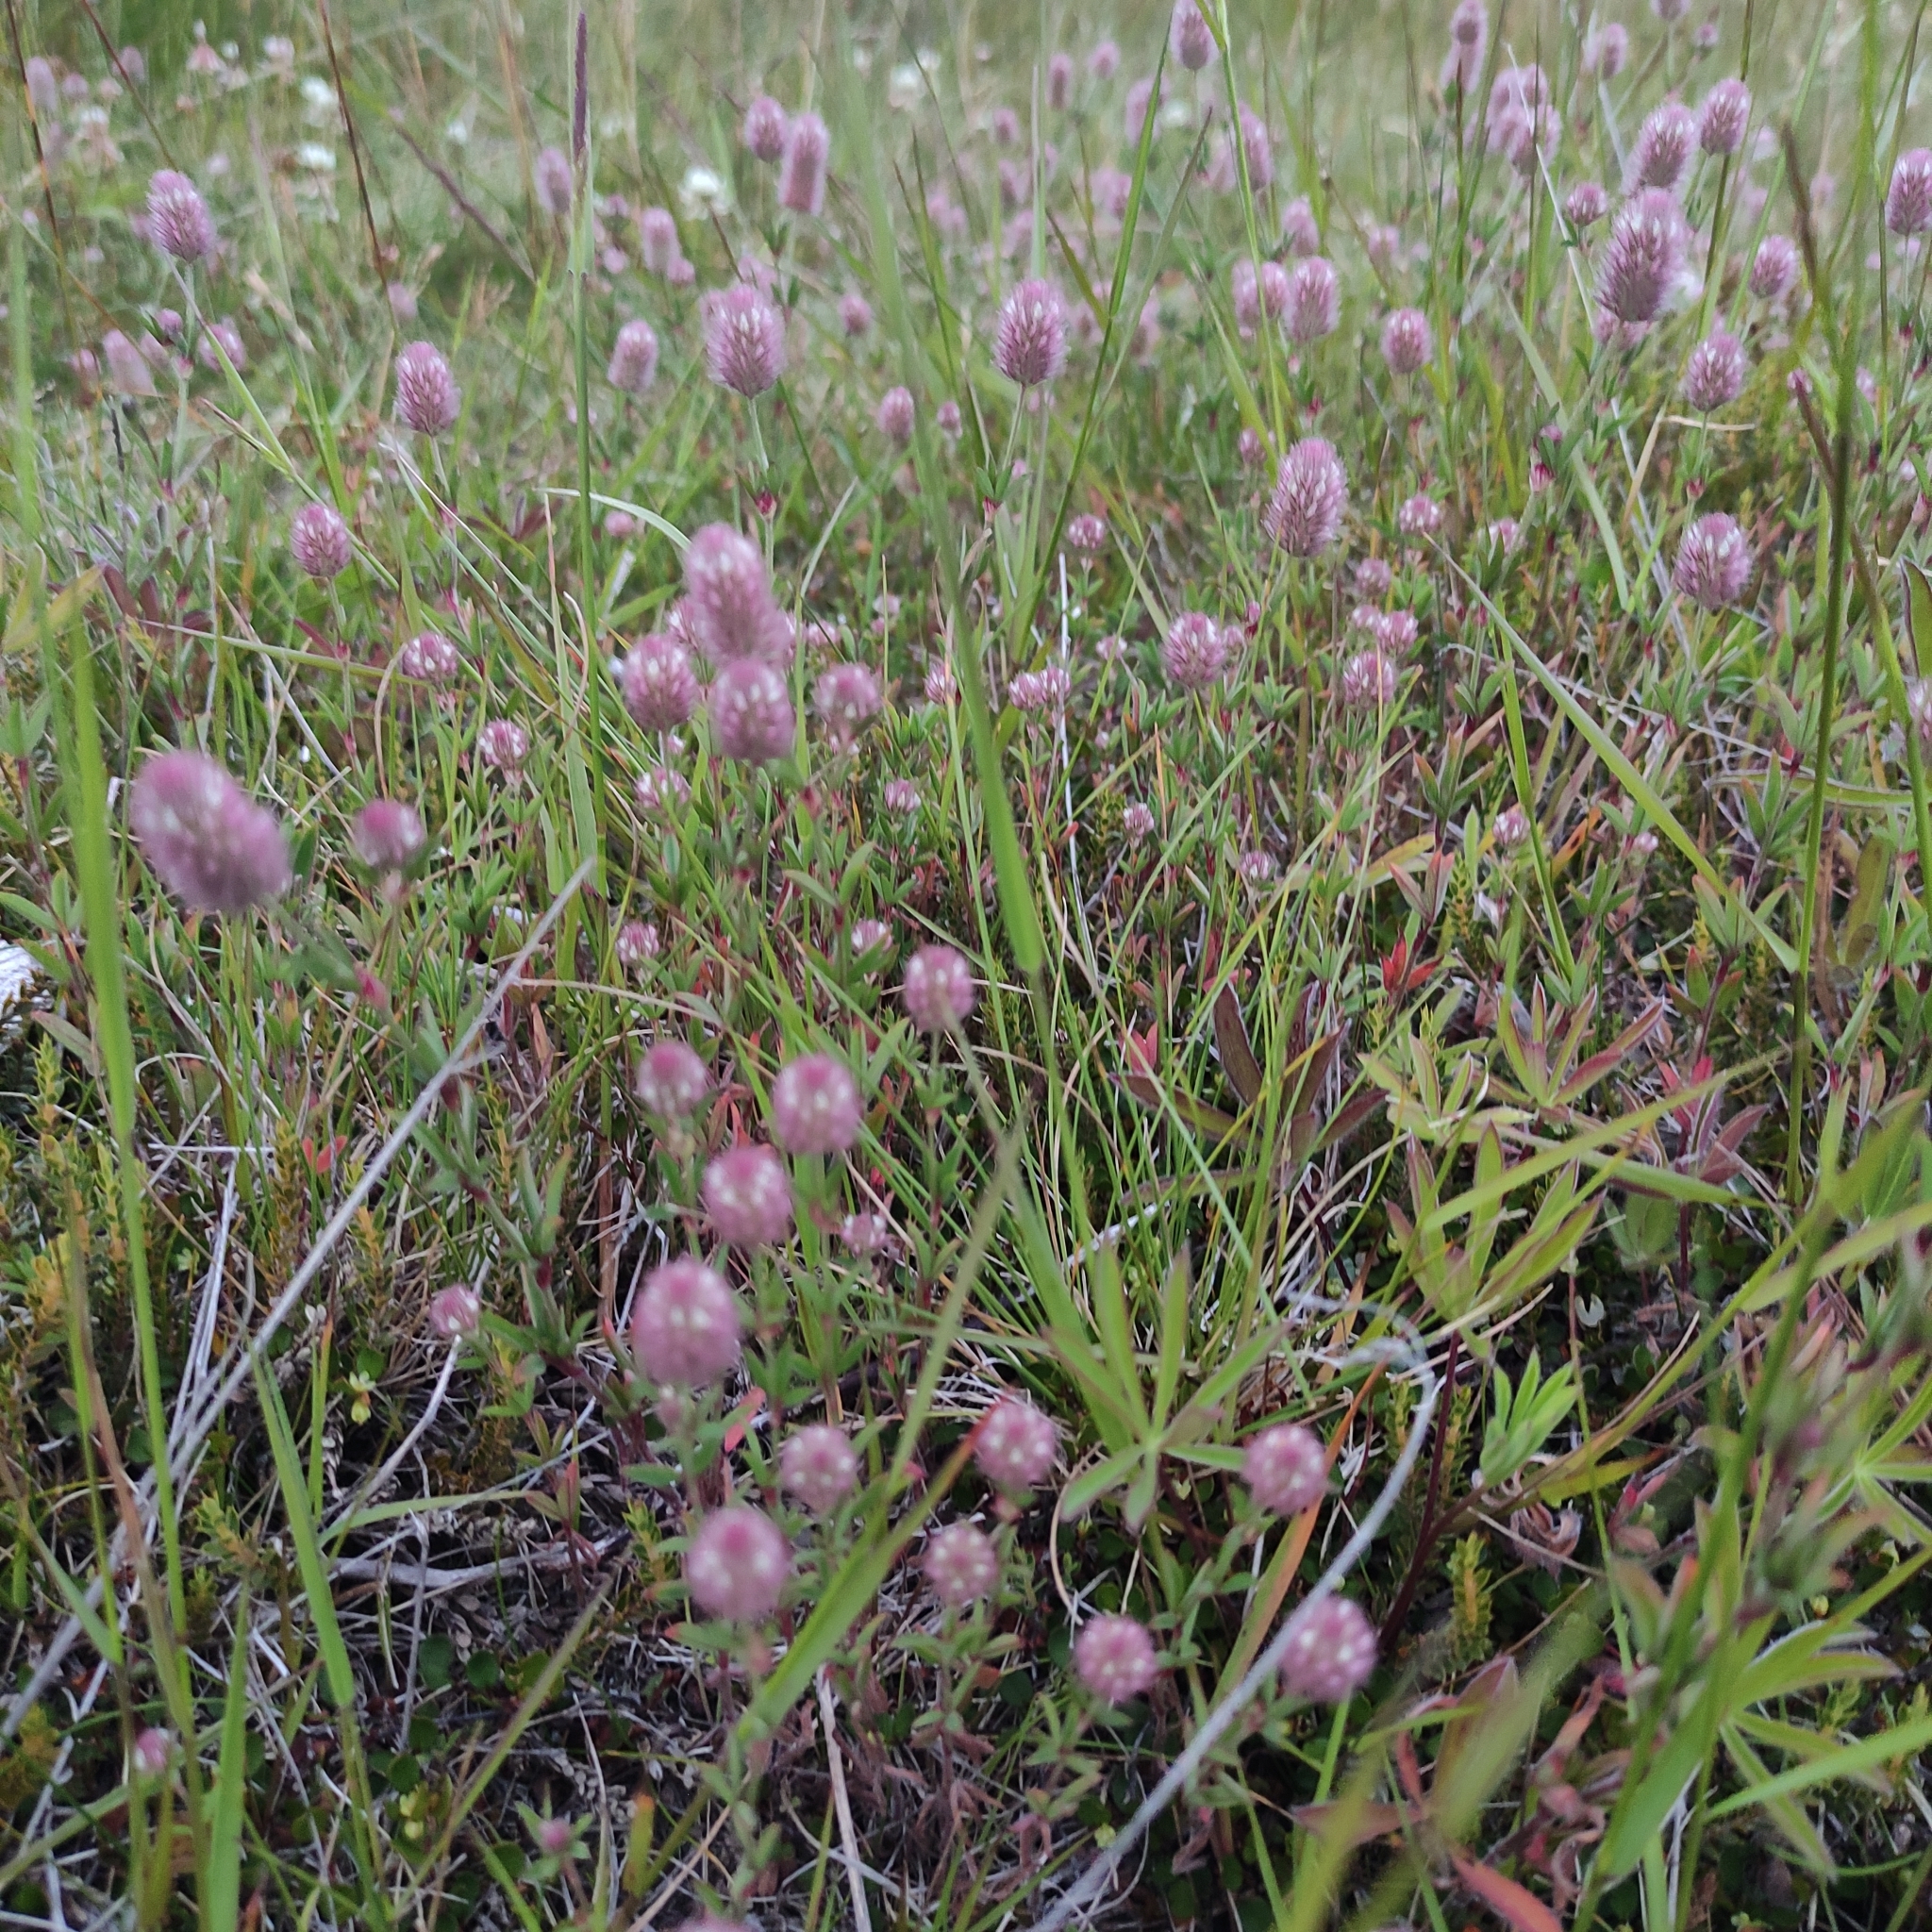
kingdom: Plantae
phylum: Tracheophyta
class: Magnoliopsida
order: Fabales
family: Fabaceae
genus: Trifolium
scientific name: Trifolium arvense
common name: Hare's-foot clover
